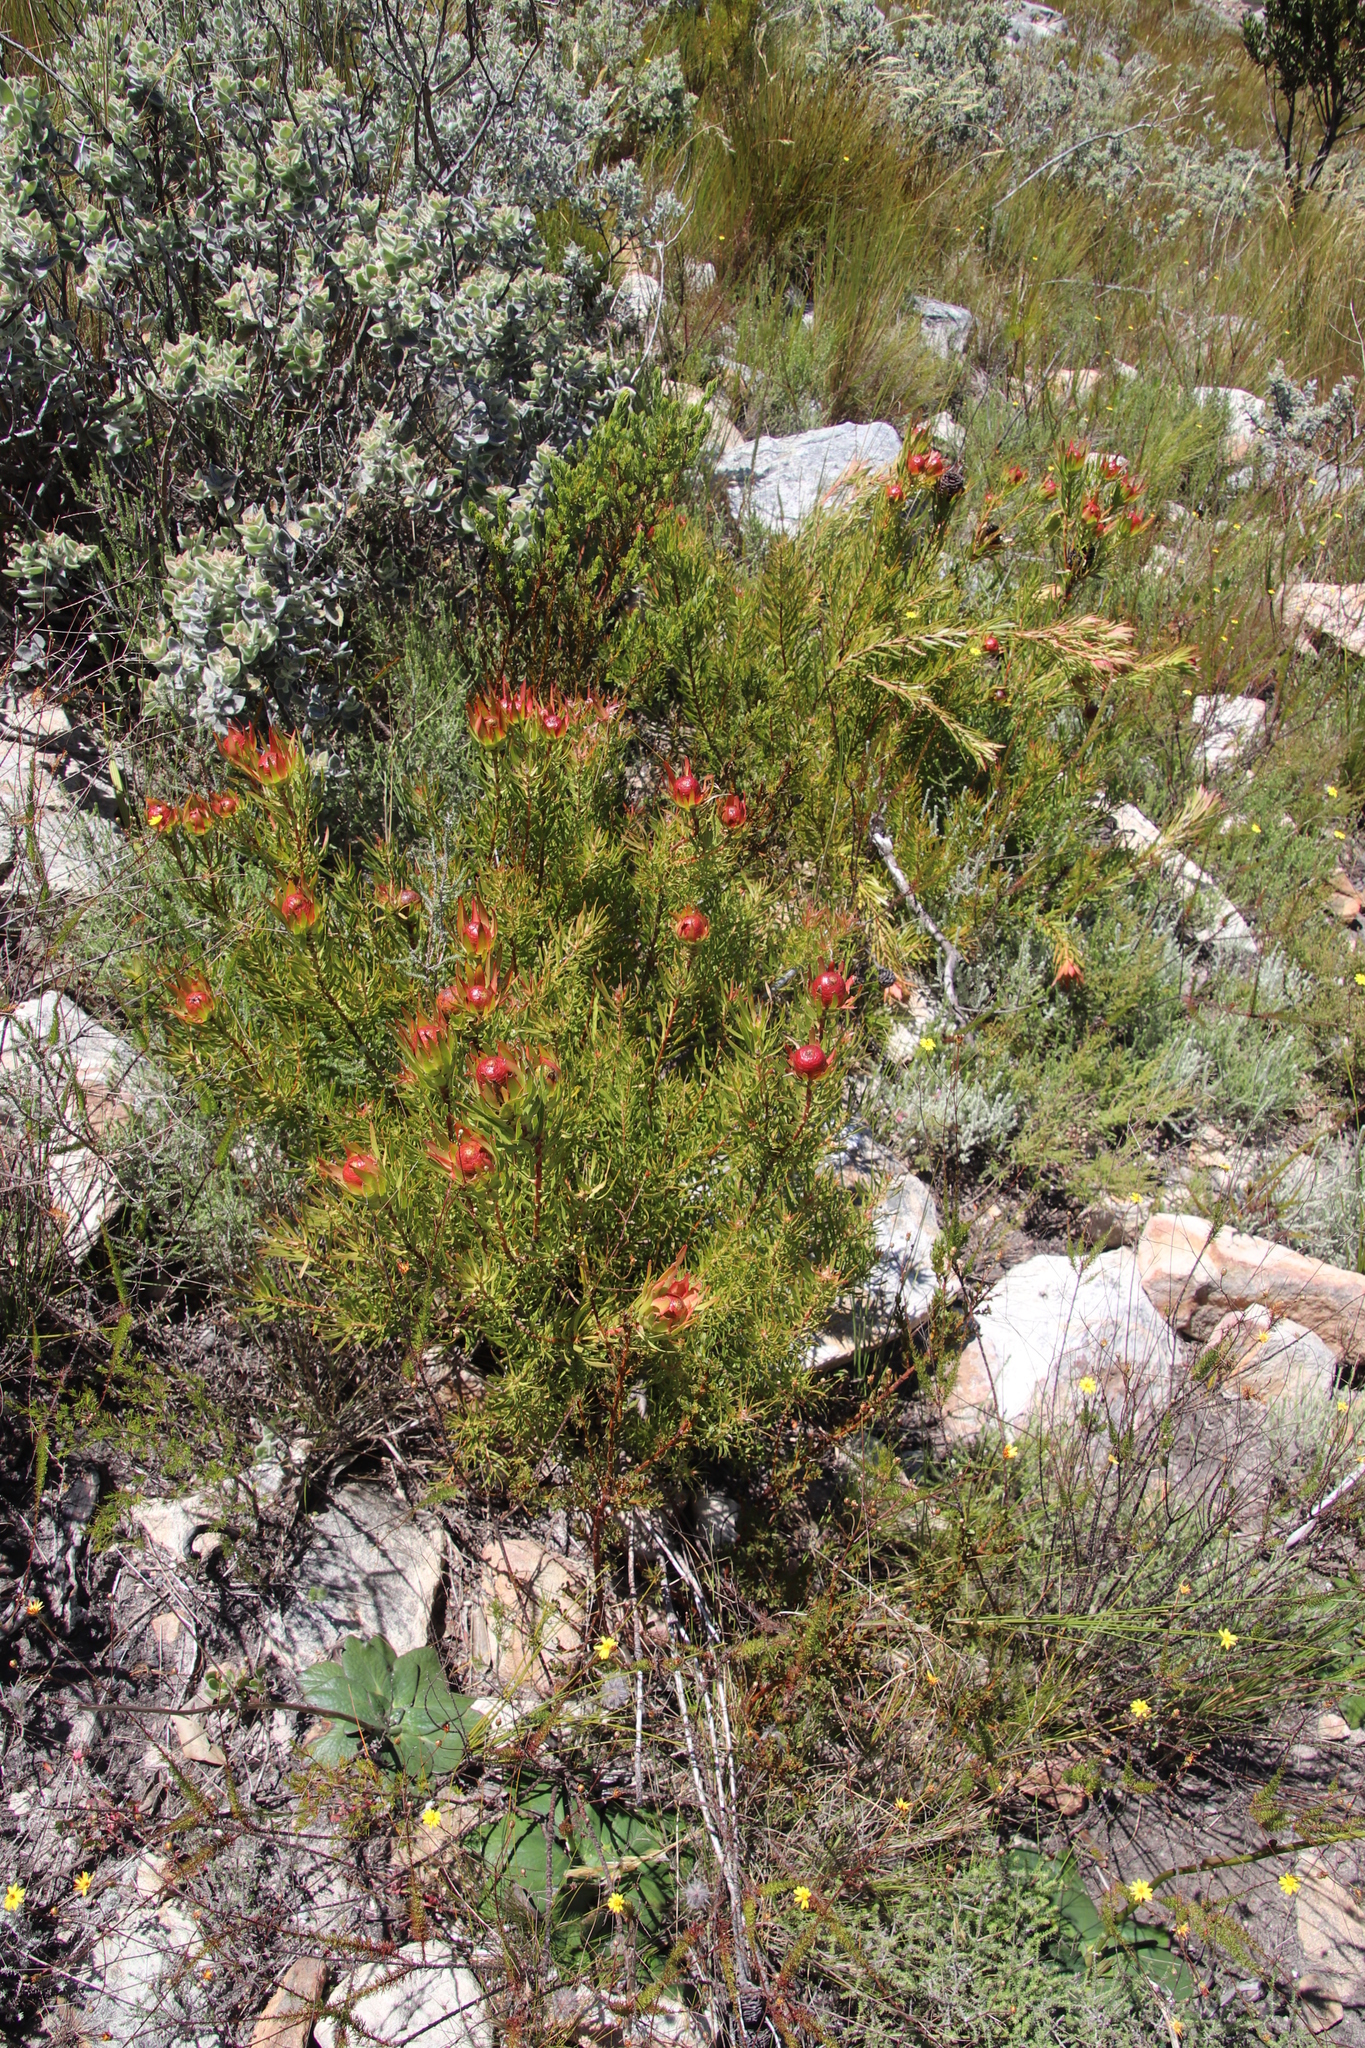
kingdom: Plantae
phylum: Tracheophyta
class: Magnoliopsida
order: Proteales
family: Proteaceae
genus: Leucadendron
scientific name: Leucadendron spissifolium
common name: Spear-leaf conebush
